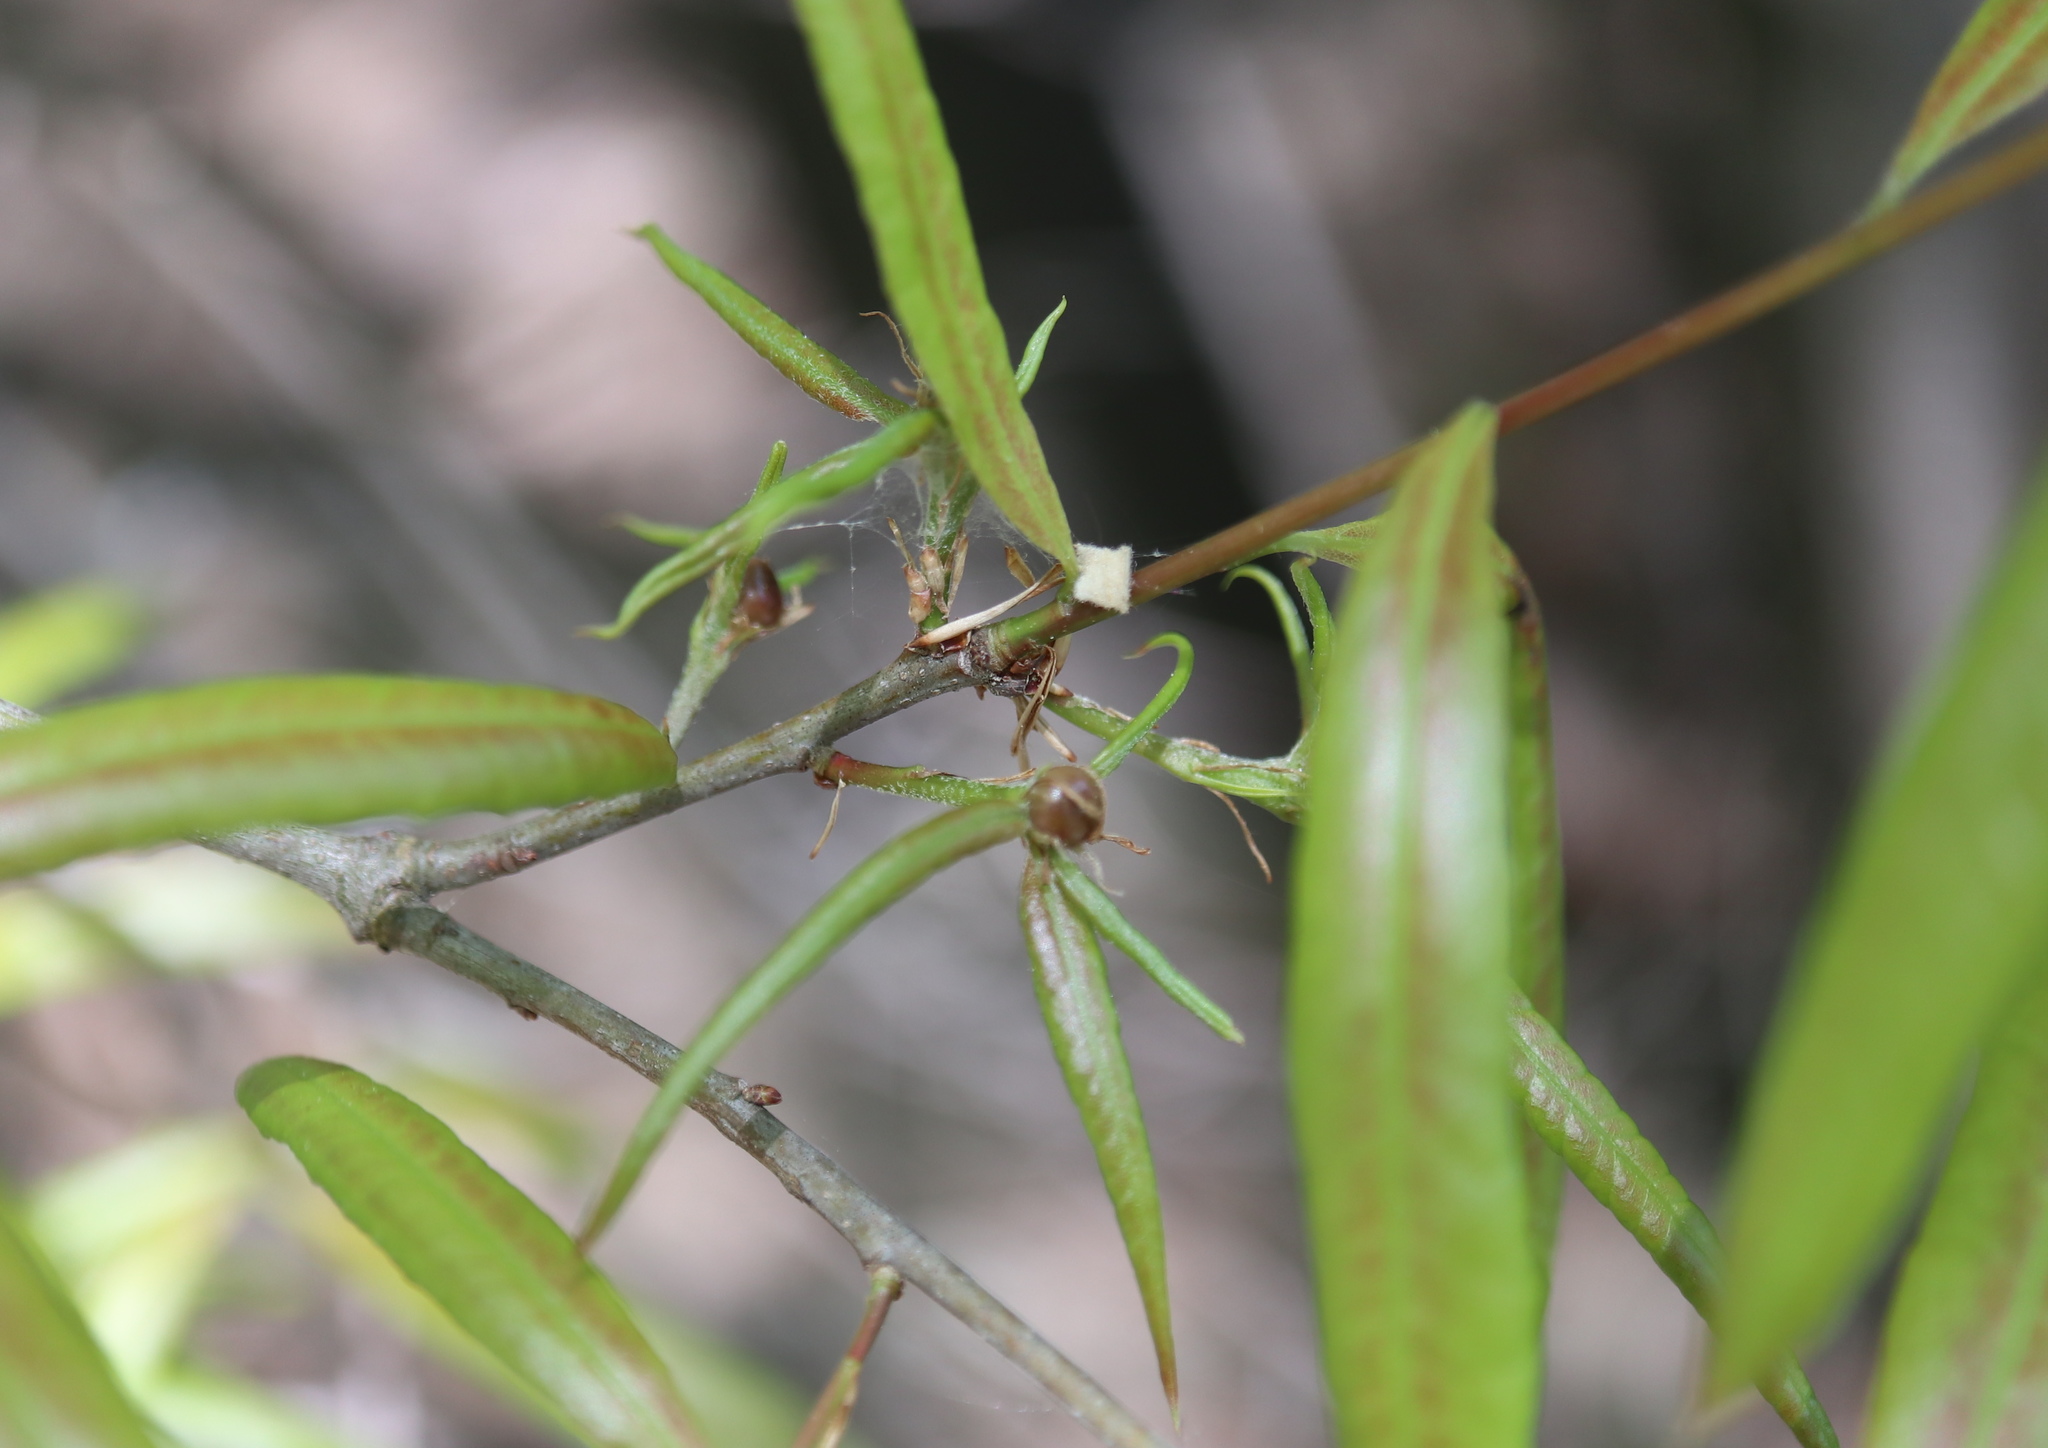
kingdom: Animalia
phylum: Arthropoda
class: Insecta
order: Hymenoptera
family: Cynipidae
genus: Zapatella
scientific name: Zapatella oblata
